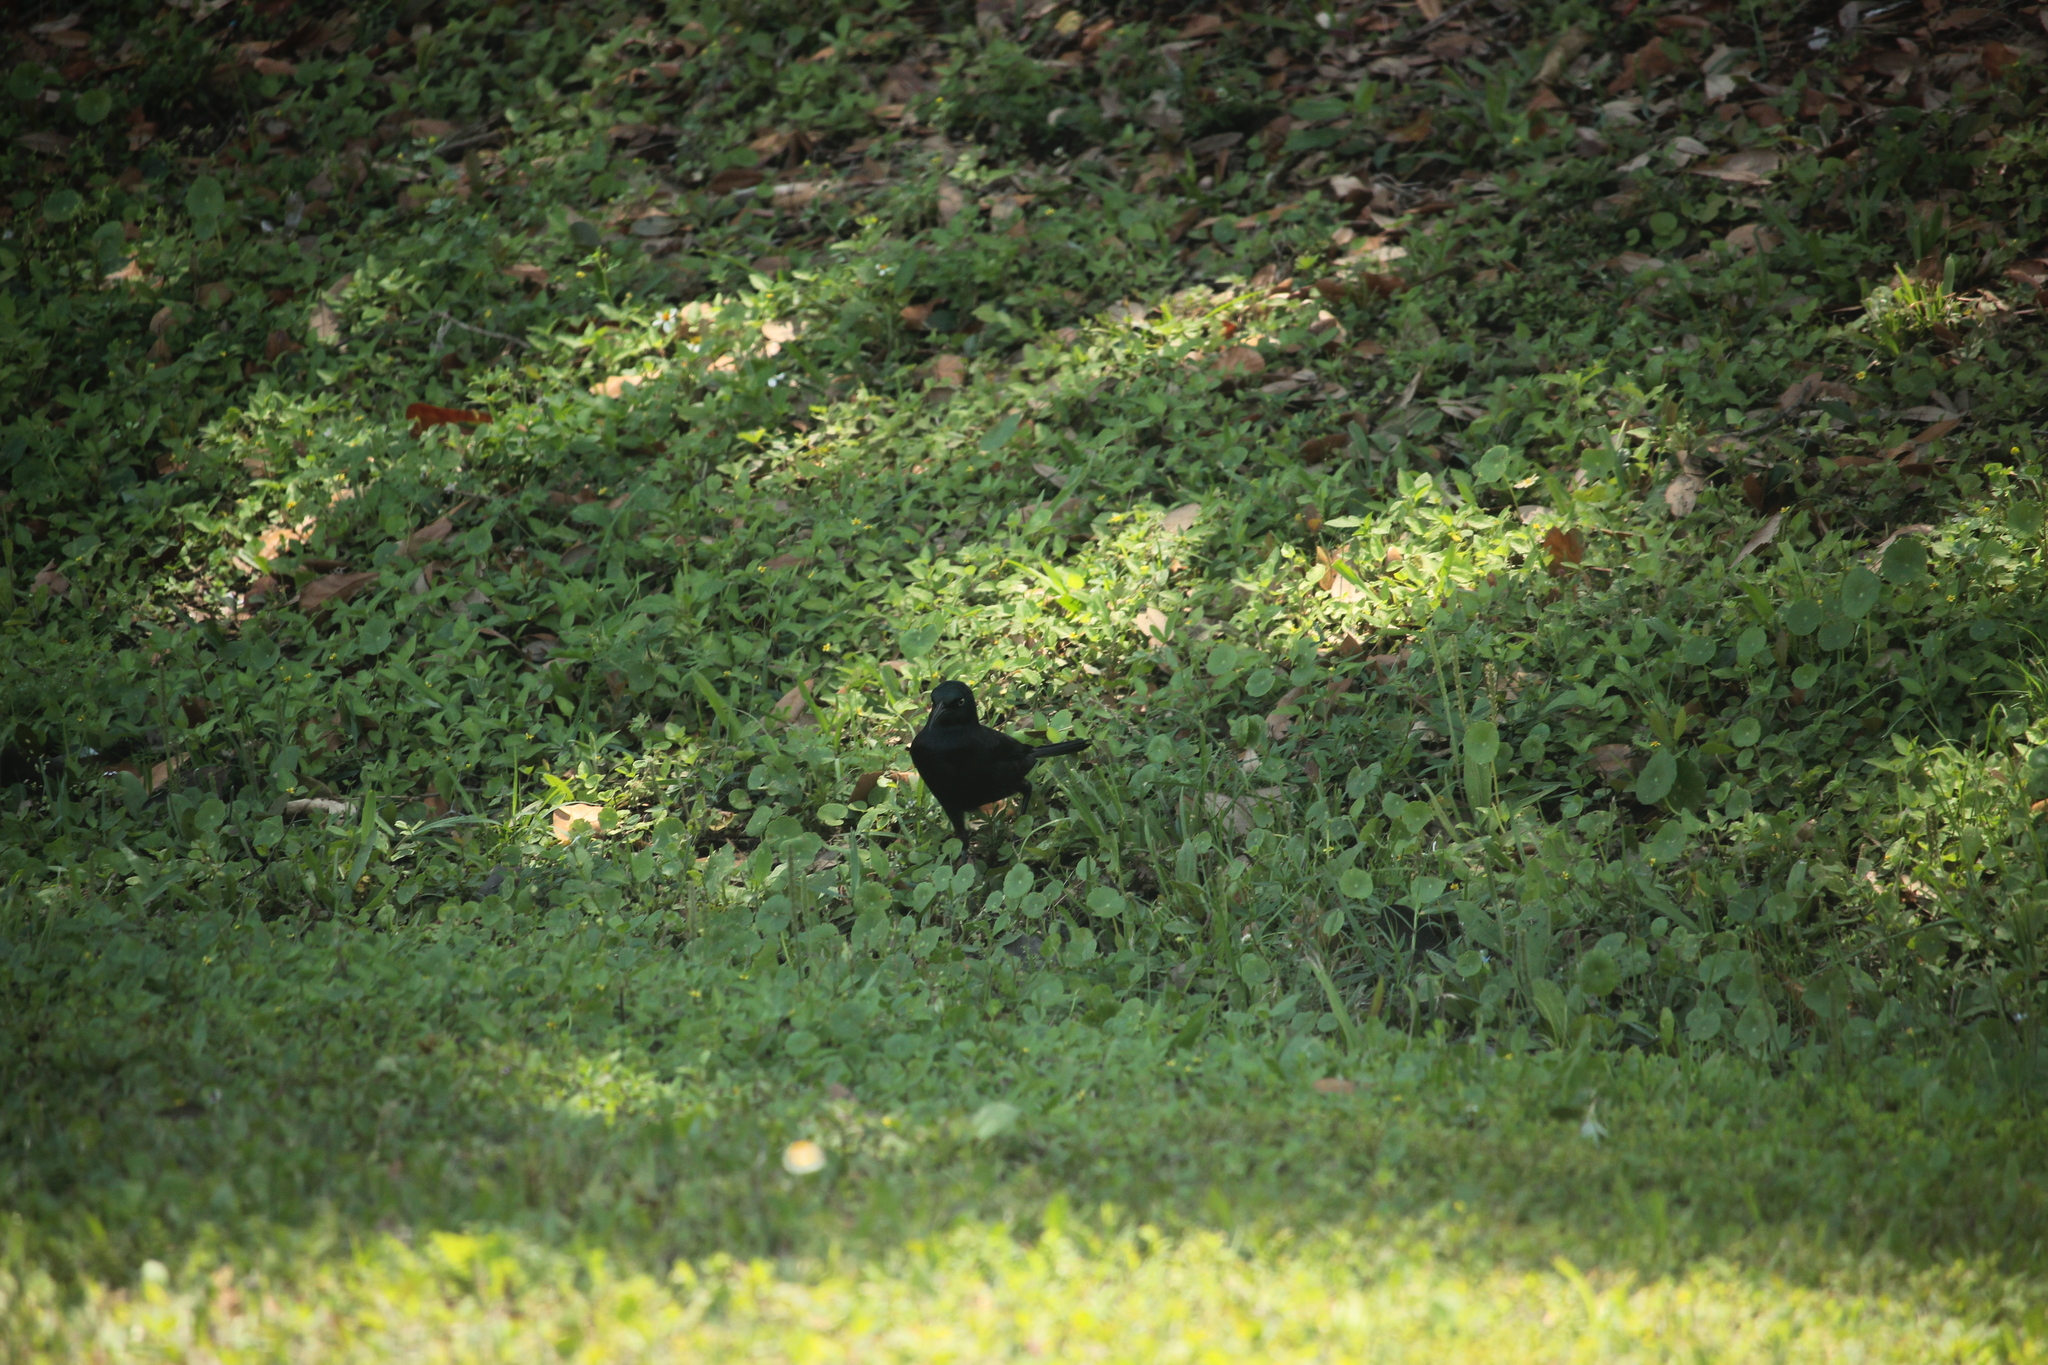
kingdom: Animalia
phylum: Chordata
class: Aves
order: Passeriformes
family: Icteridae
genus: Quiscalus
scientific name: Quiscalus quiscula
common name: Common grackle
